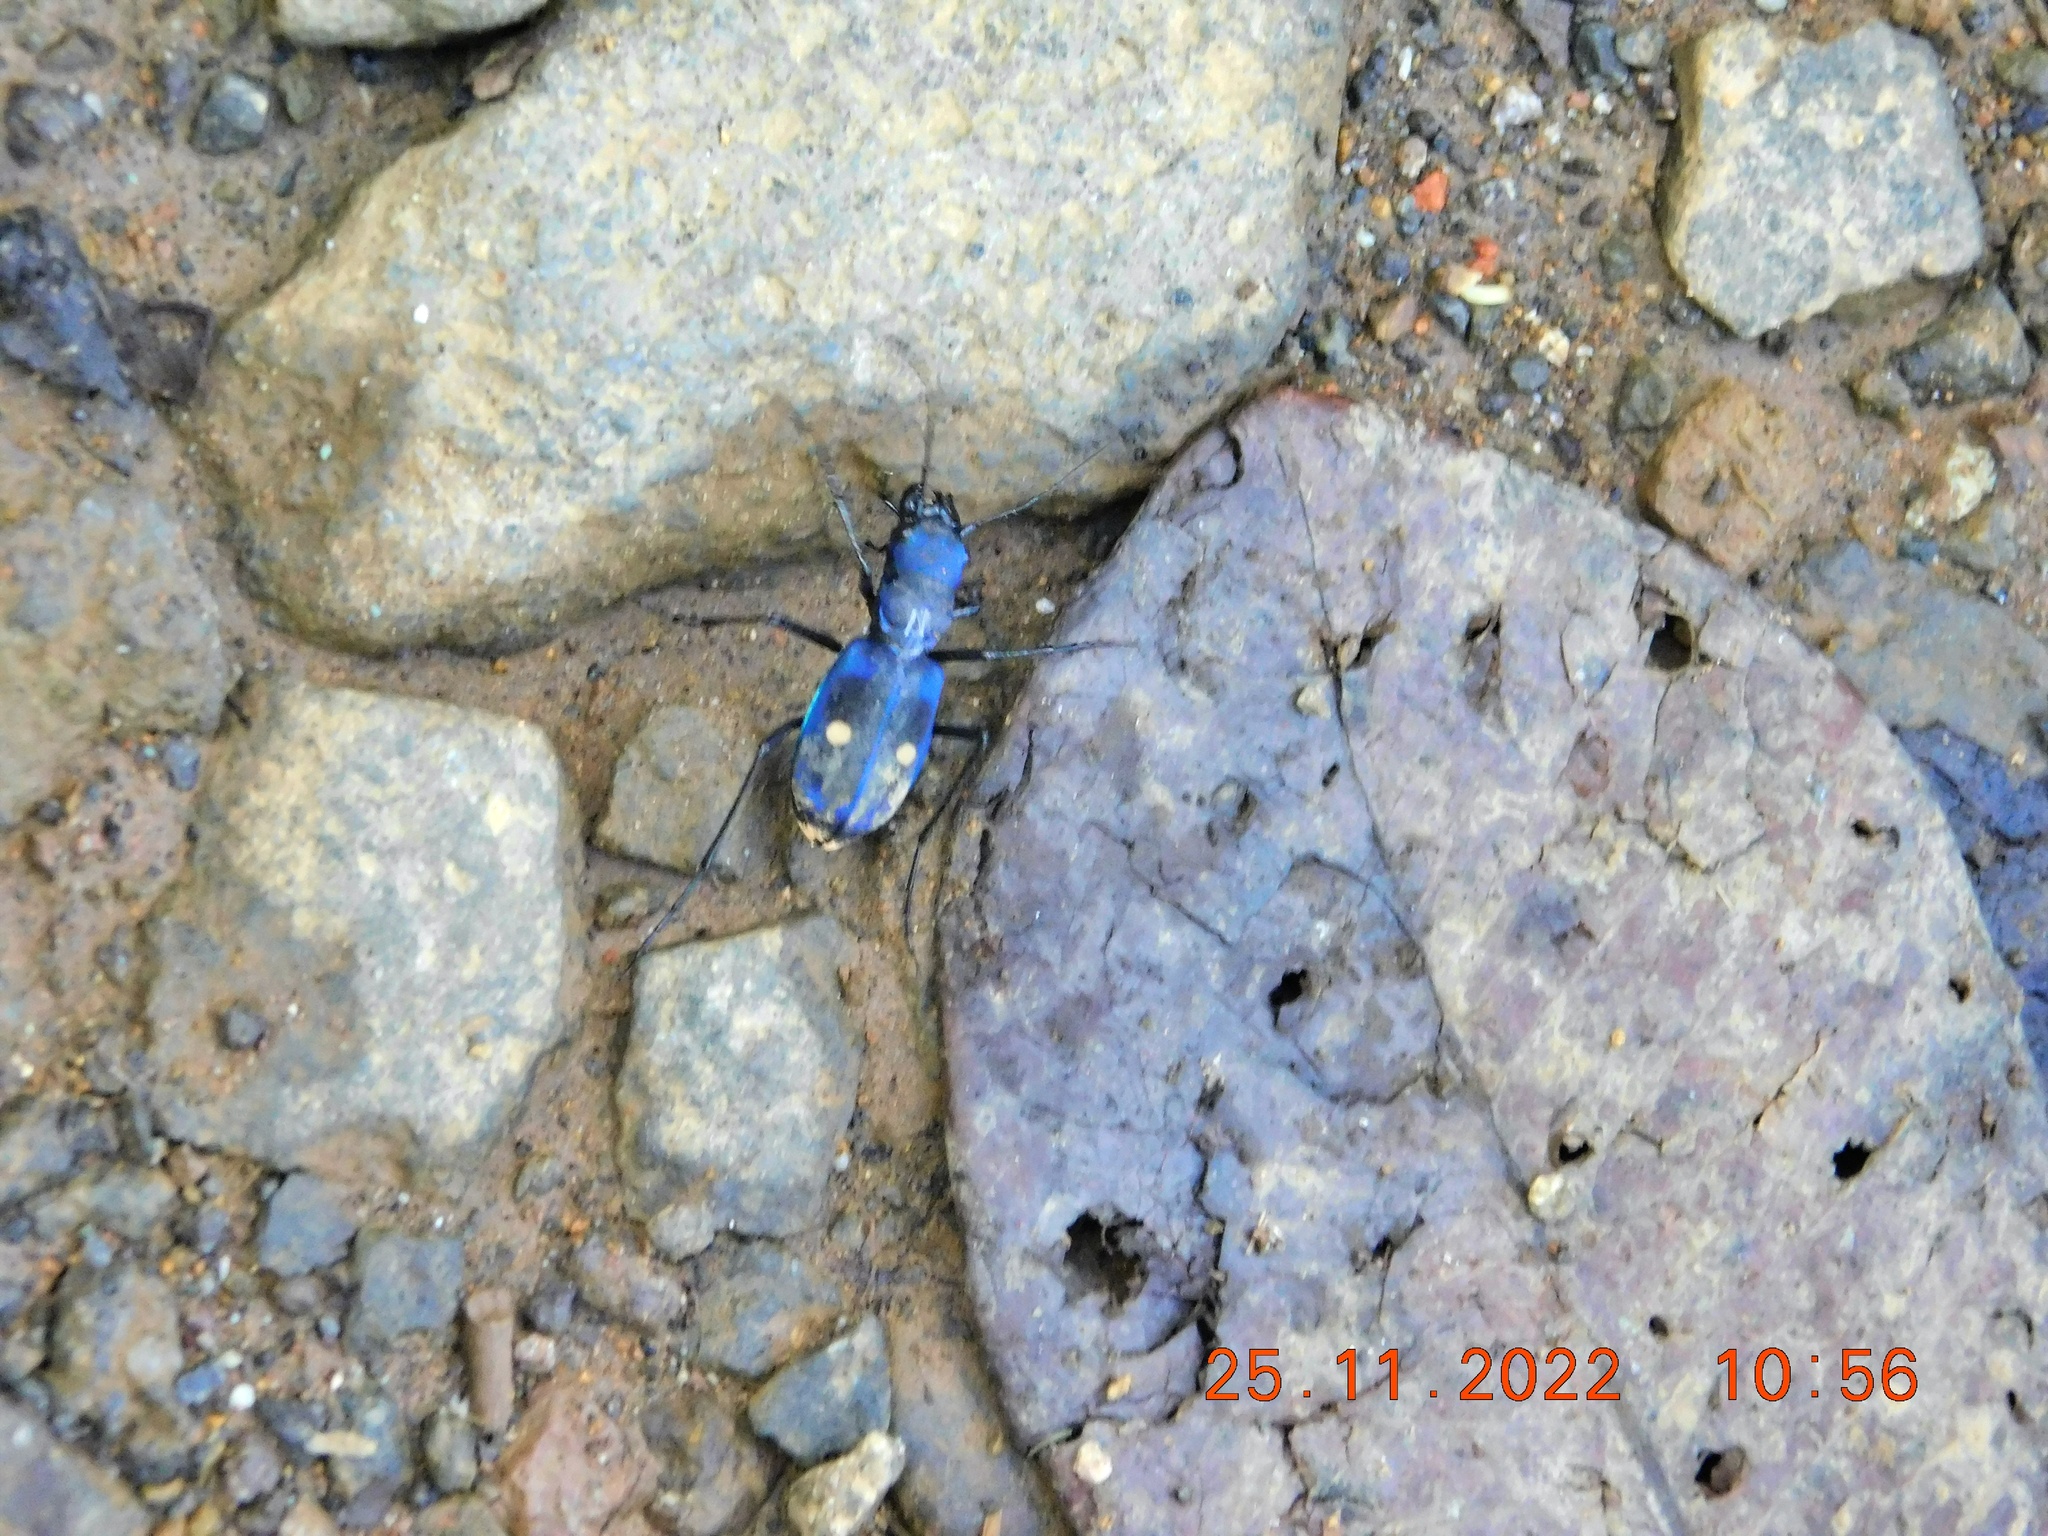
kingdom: Animalia
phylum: Arthropoda
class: Insecta
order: Coleoptera
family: Carabidae
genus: Pseudoxycheila
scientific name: Pseudoxycheila tarsalis
